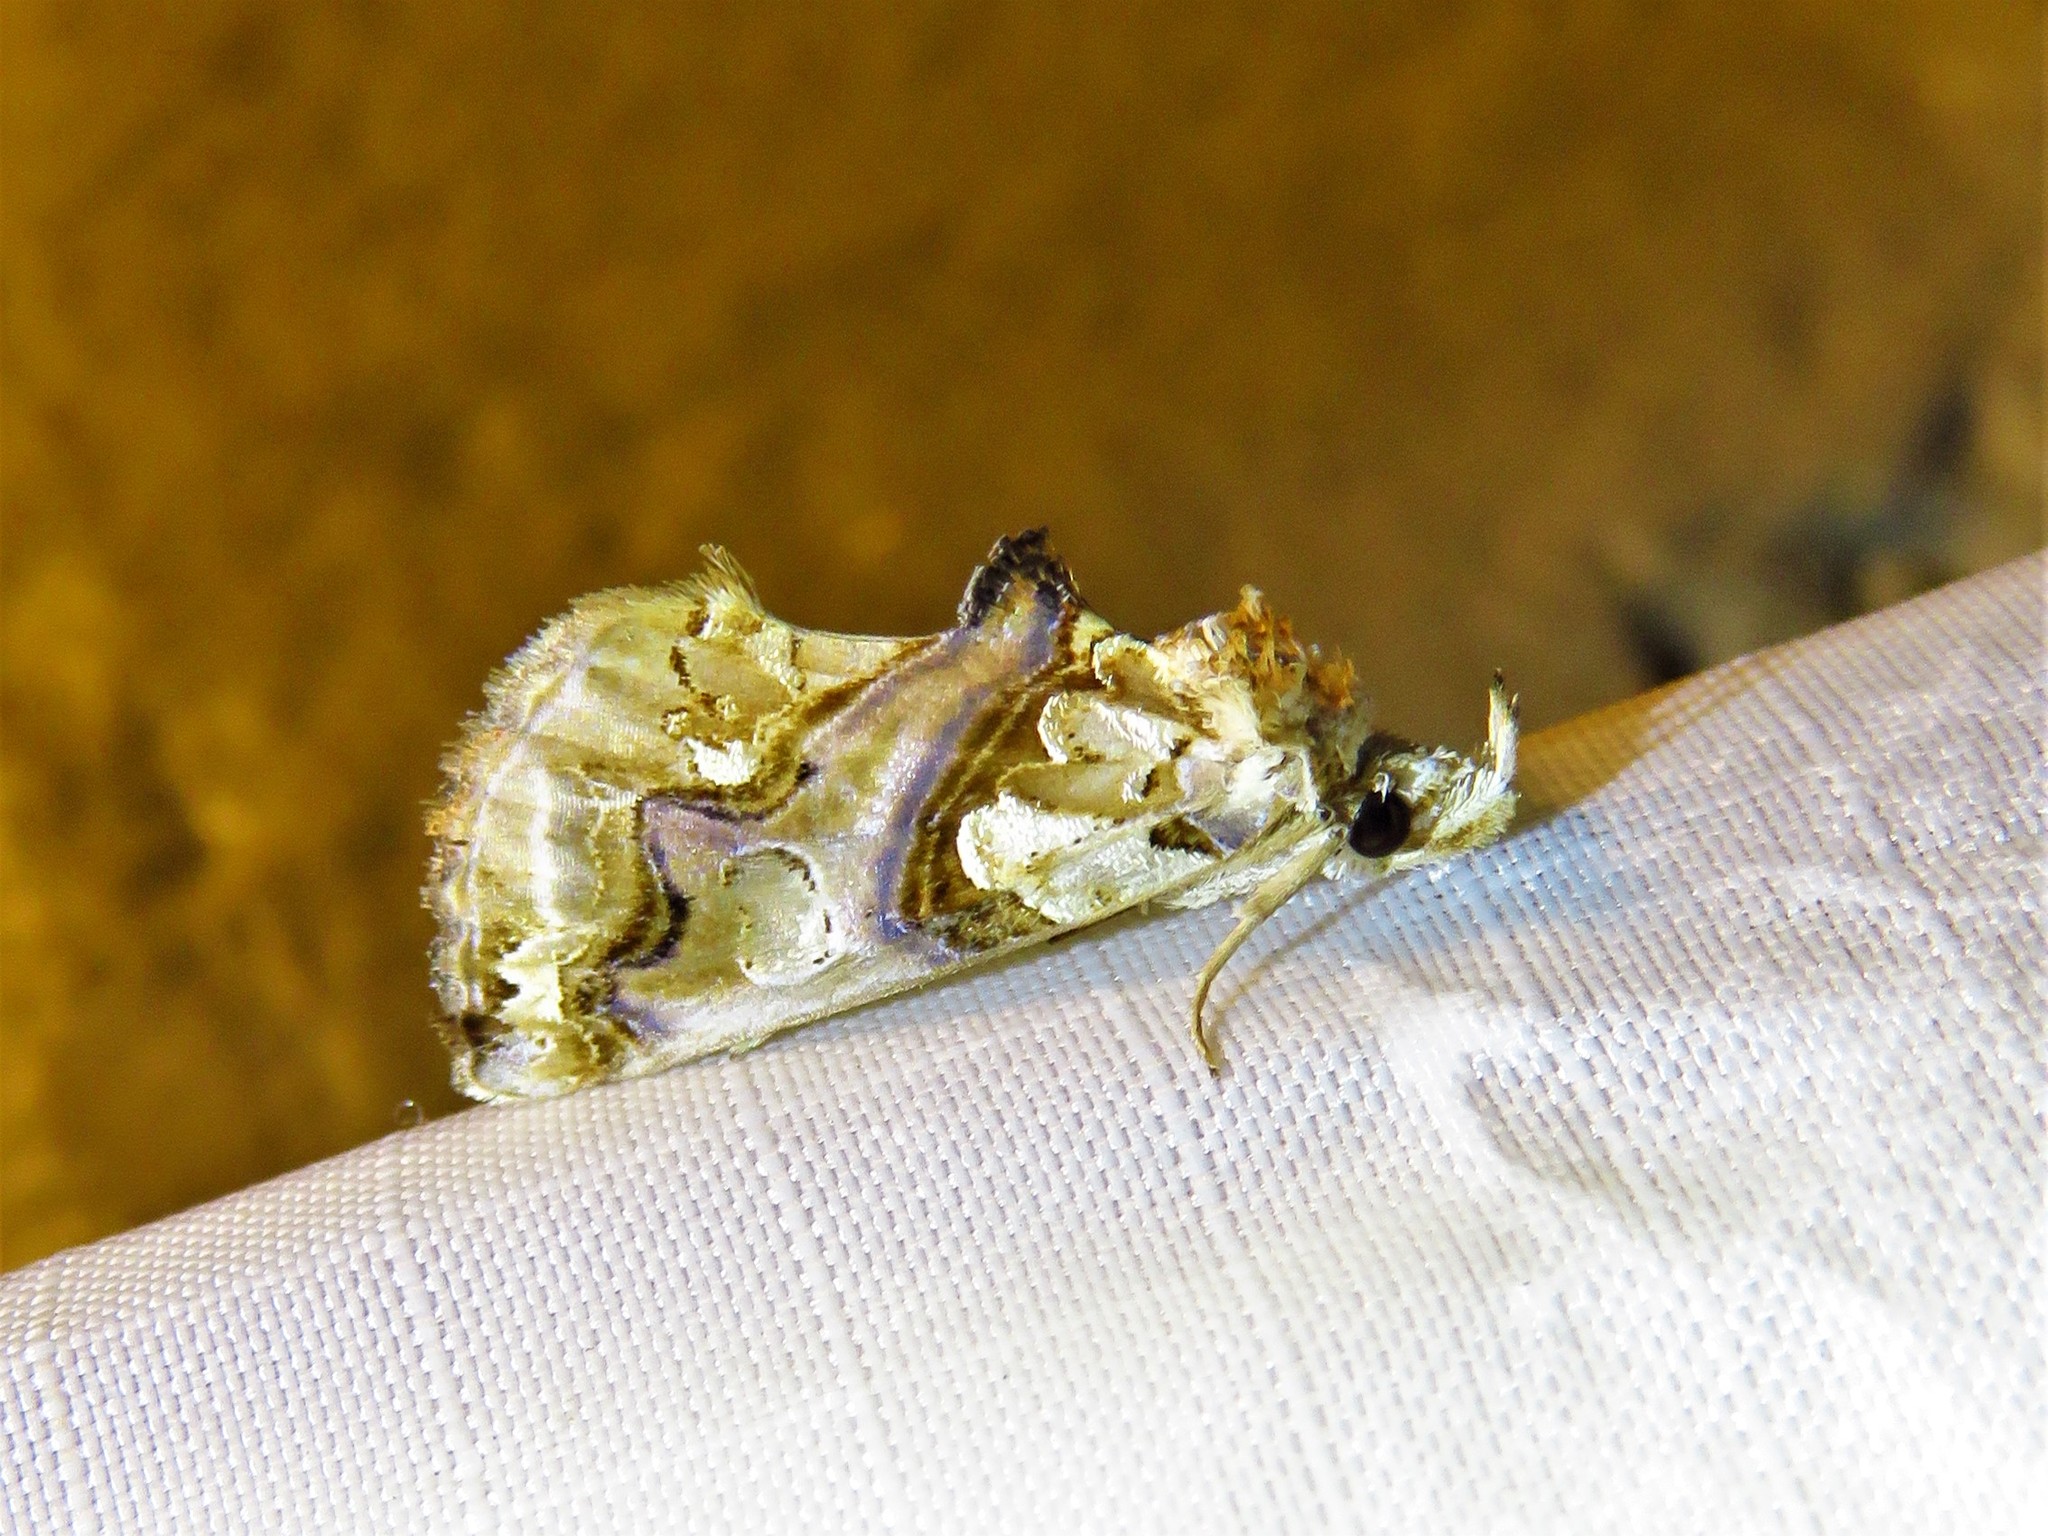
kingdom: Animalia
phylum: Arthropoda
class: Insecta
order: Lepidoptera
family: Erebidae
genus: Plusiodonta
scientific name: Plusiodonta compressipalpis
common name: Moonseed moth
